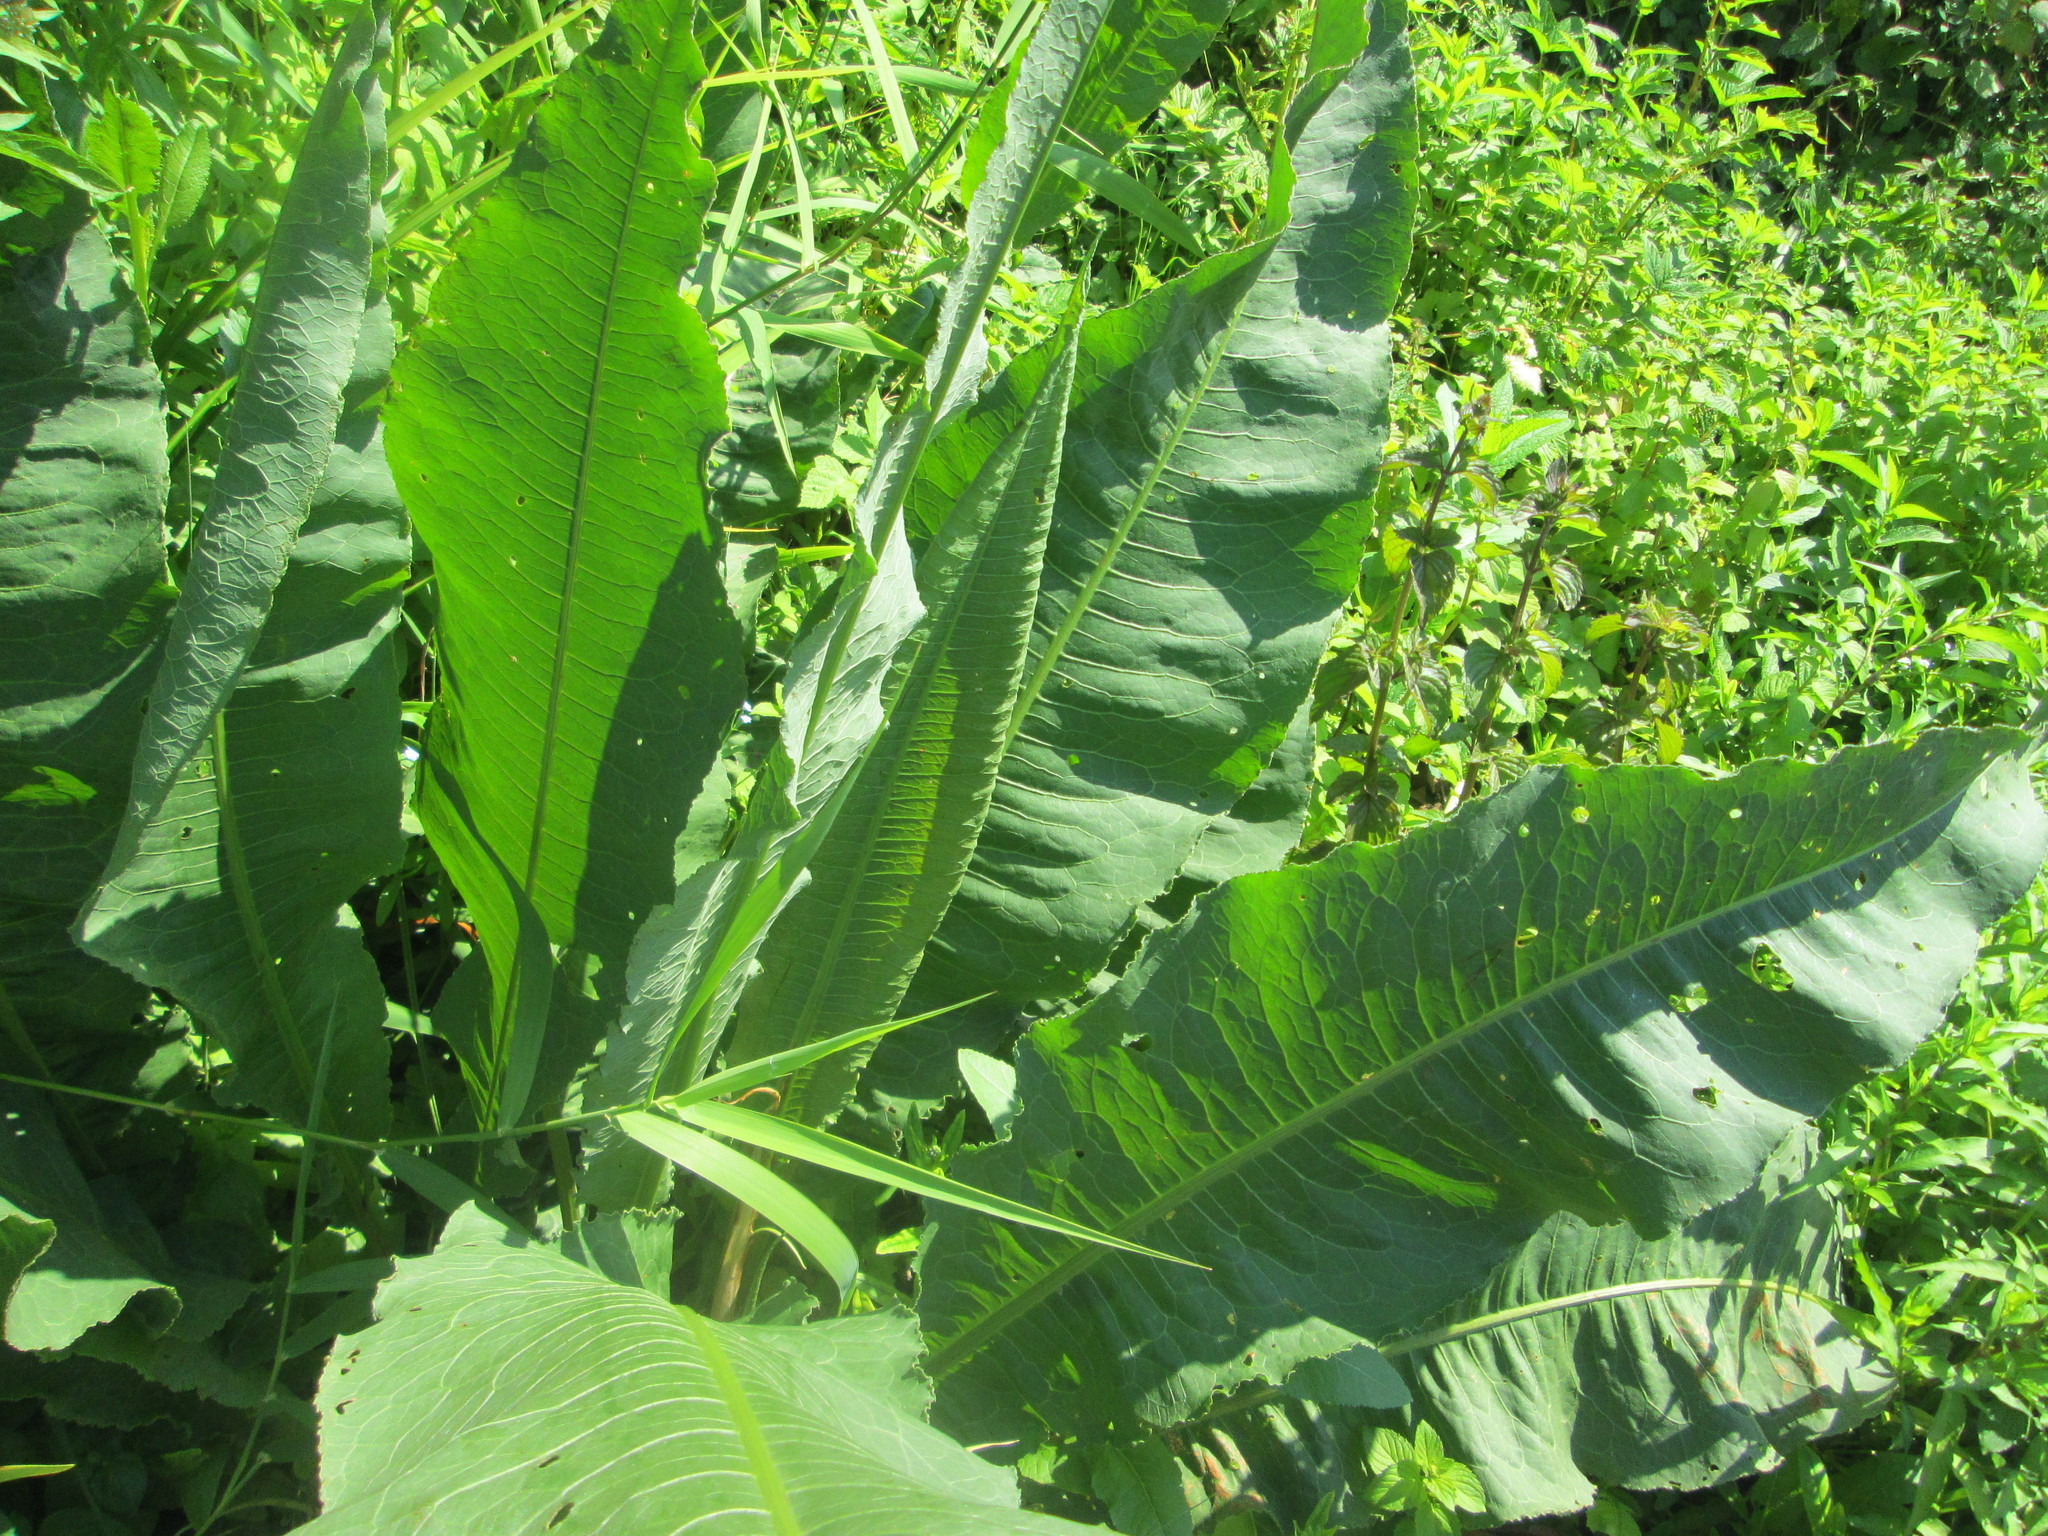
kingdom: Plantae
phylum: Tracheophyta
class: Magnoliopsida
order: Caryophyllales
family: Polygonaceae
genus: Rumex
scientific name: Rumex hydrolapathum
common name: Water dock
